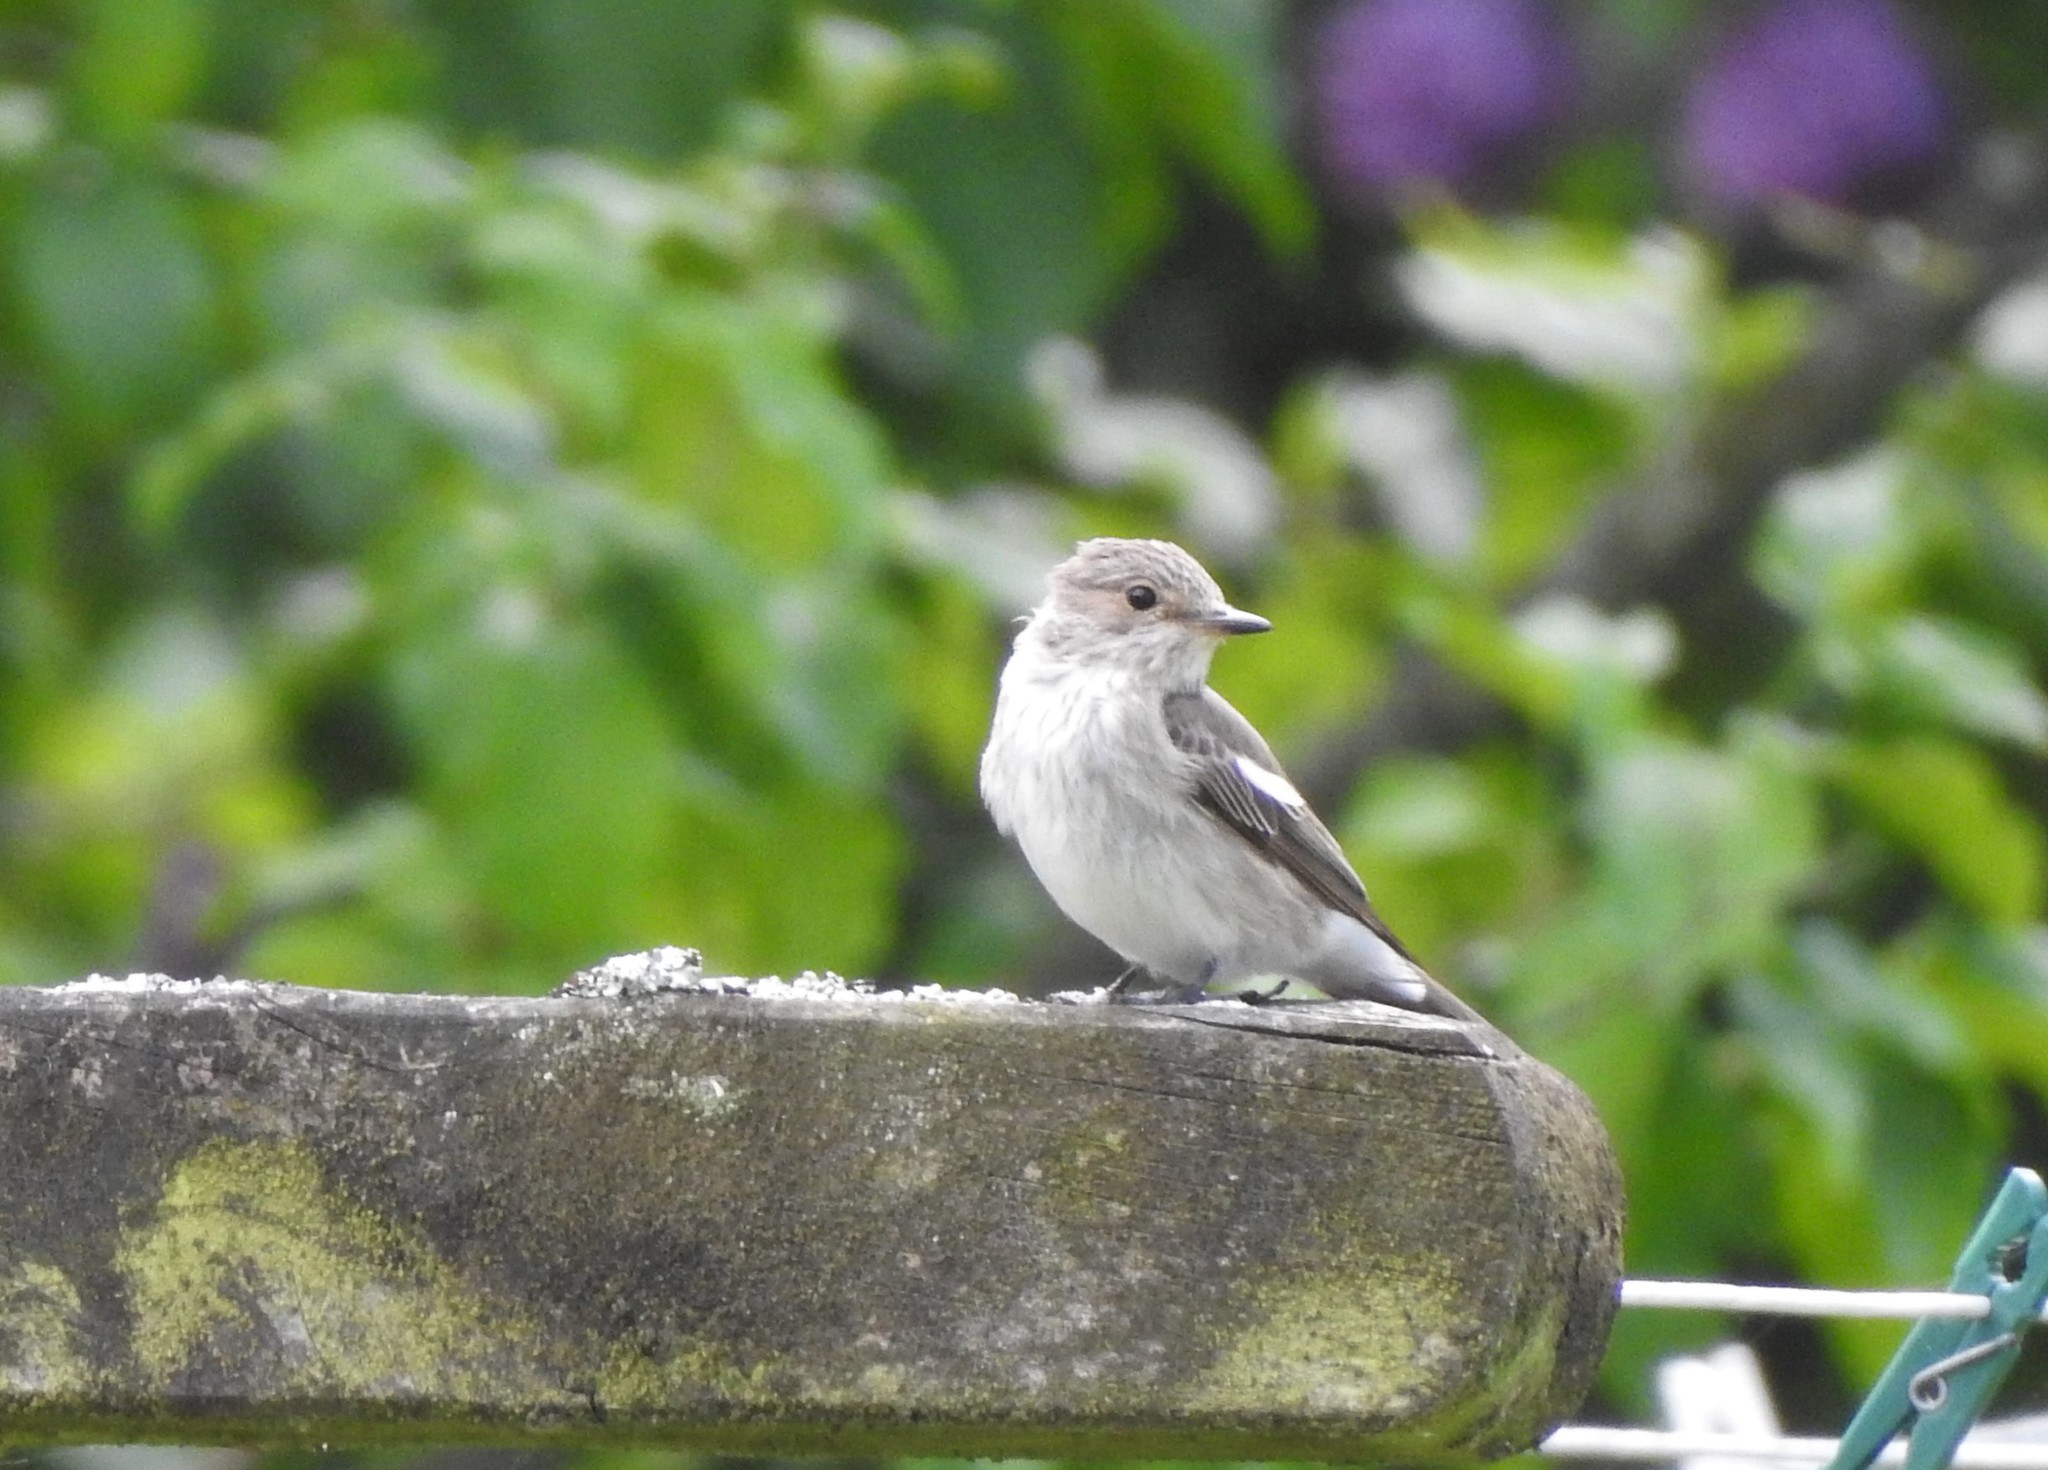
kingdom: Animalia
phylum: Chordata
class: Aves
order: Passeriformes
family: Muscicapidae
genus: Muscicapa
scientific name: Muscicapa striata
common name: Spotted flycatcher
